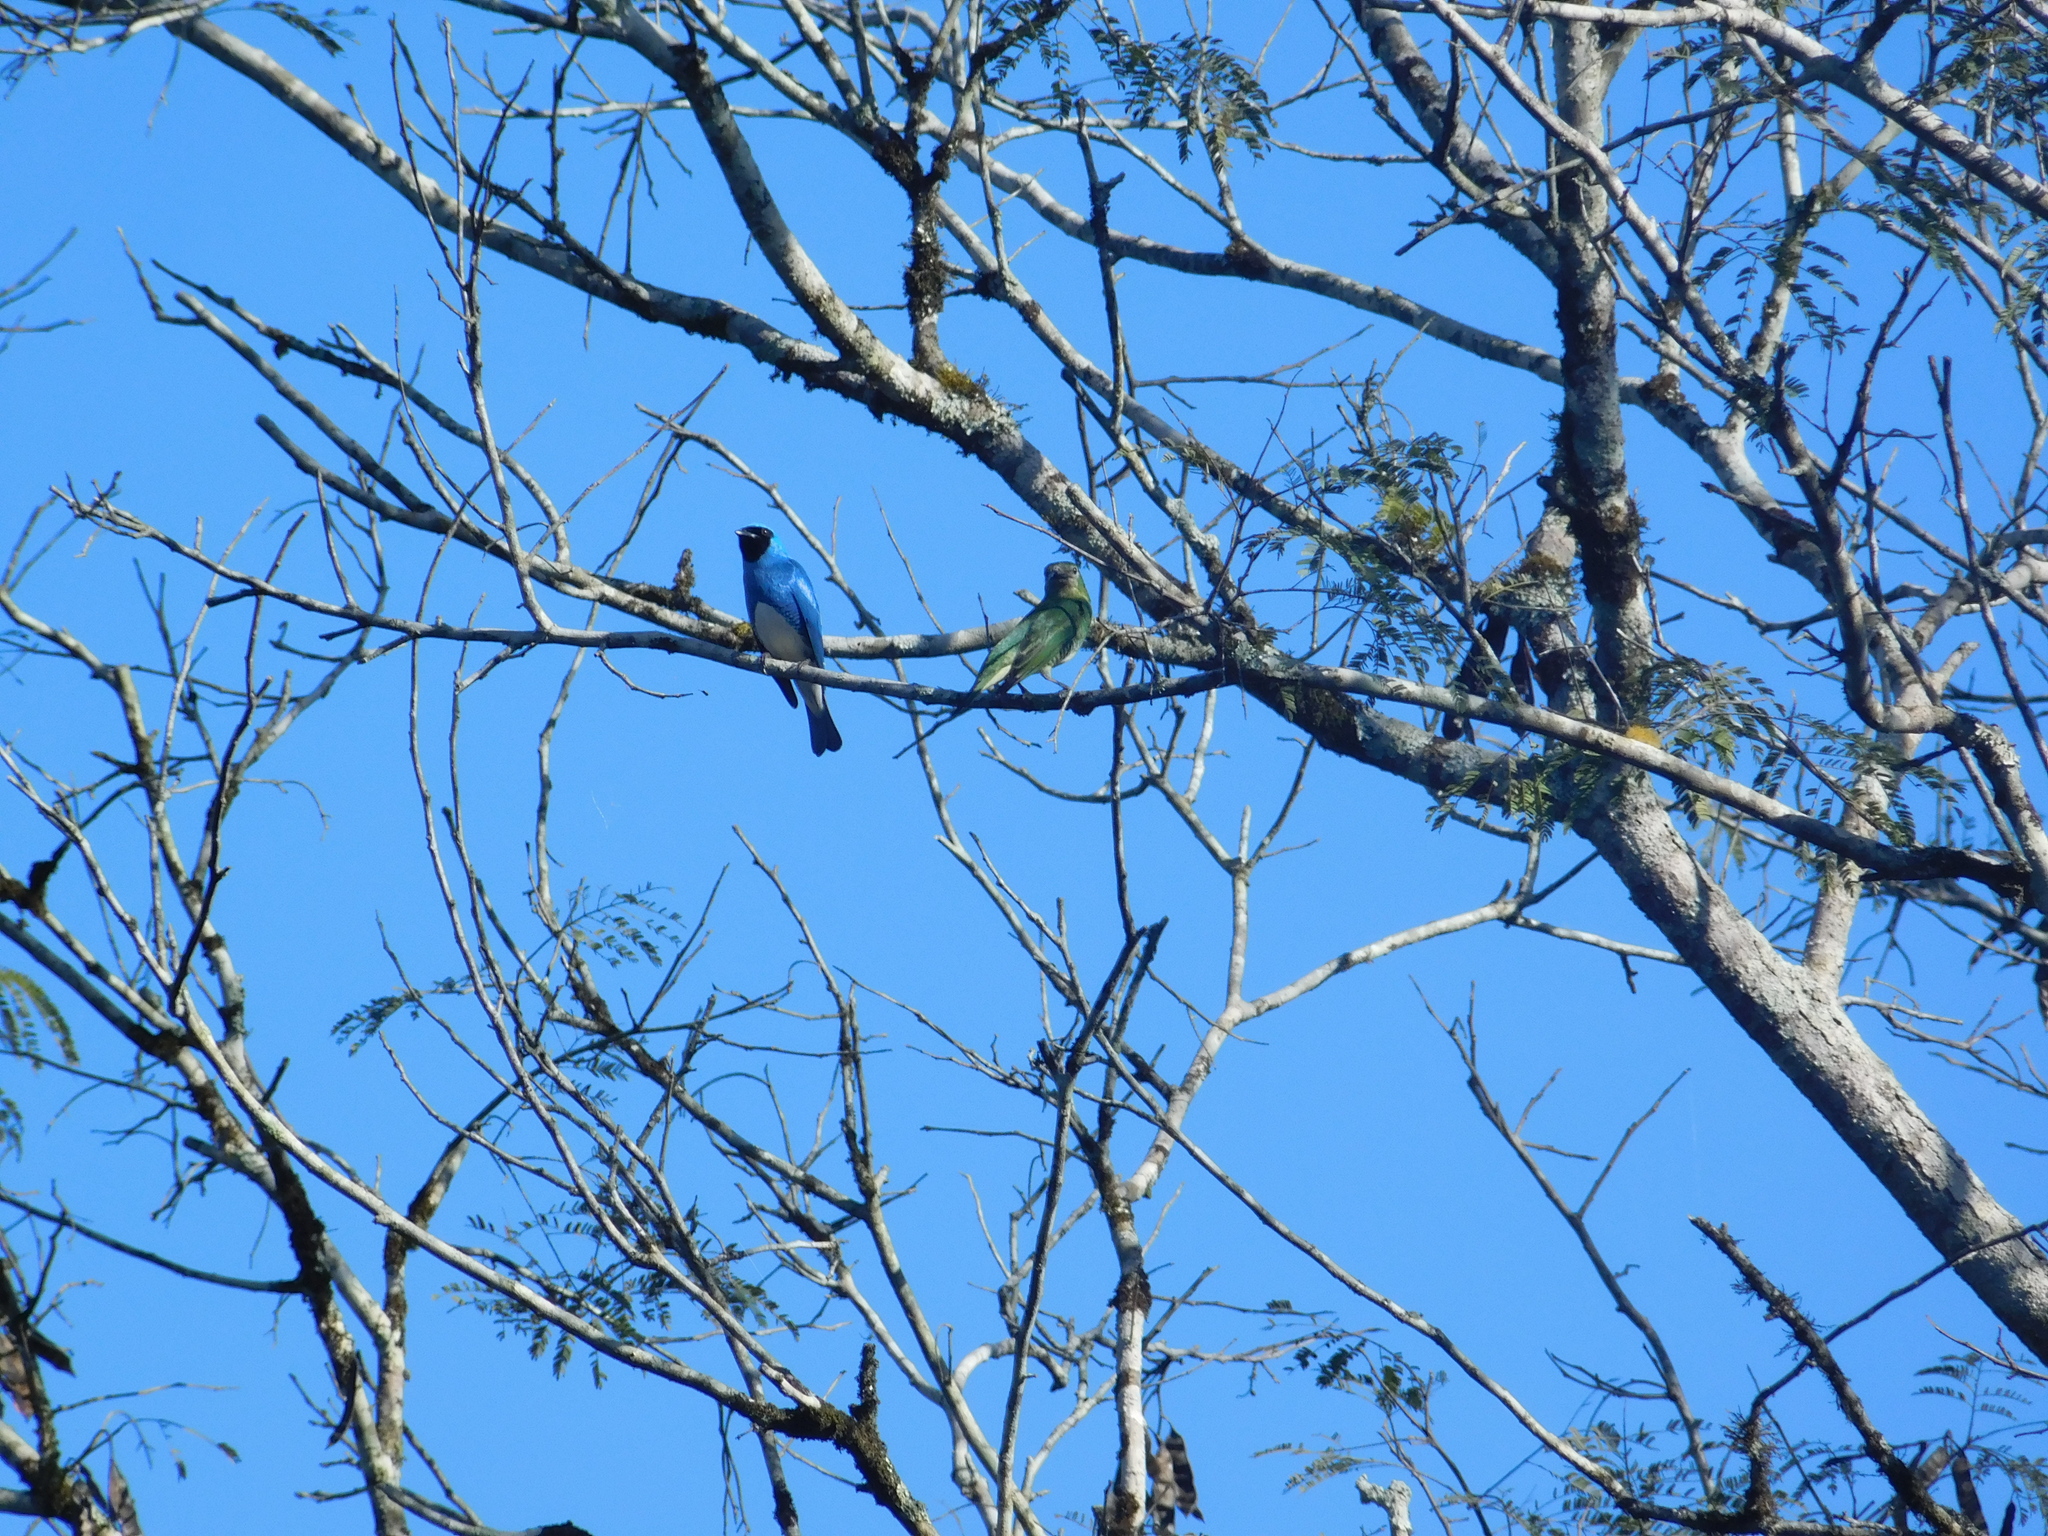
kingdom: Animalia
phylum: Chordata
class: Aves
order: Passeriformes
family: Thraupidae
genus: Tersina
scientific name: Tersina viridis
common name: Swallow tanager
